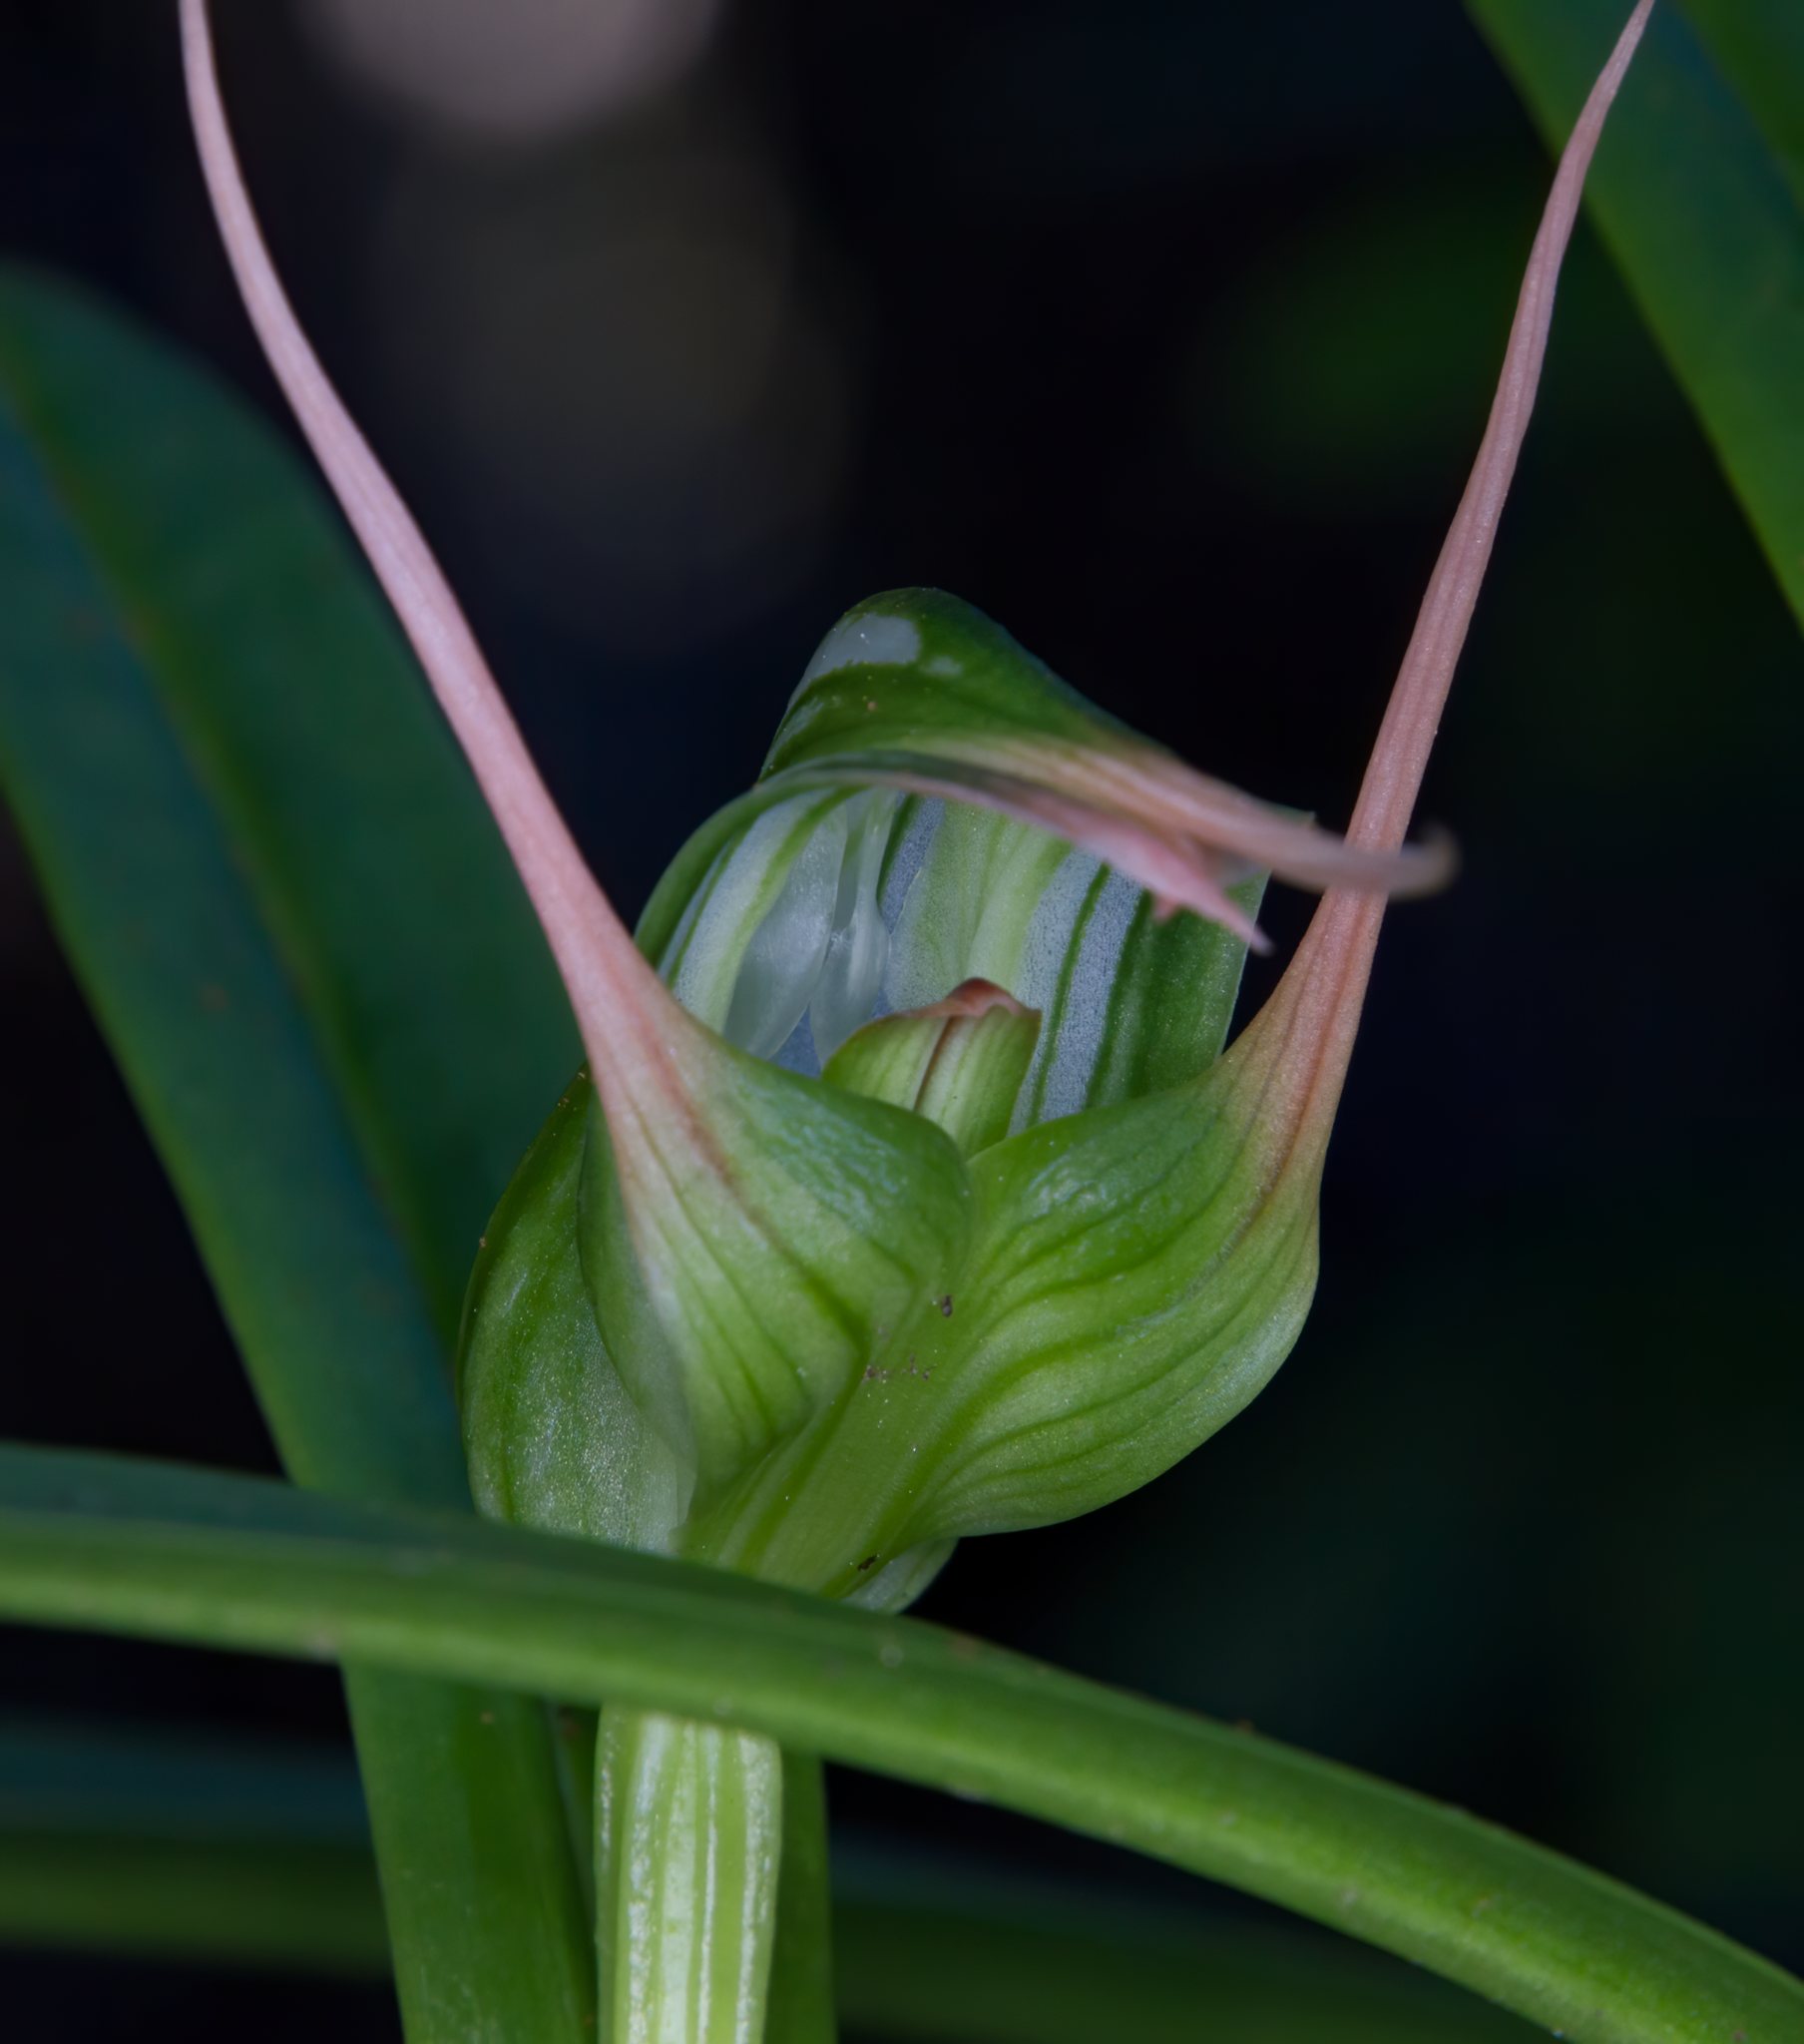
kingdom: Plantae
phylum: Tracheophyta
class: Liliopsida
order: Asparagales
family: Orchidaceae
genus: Pterostylis
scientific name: Pterostylis banksii
